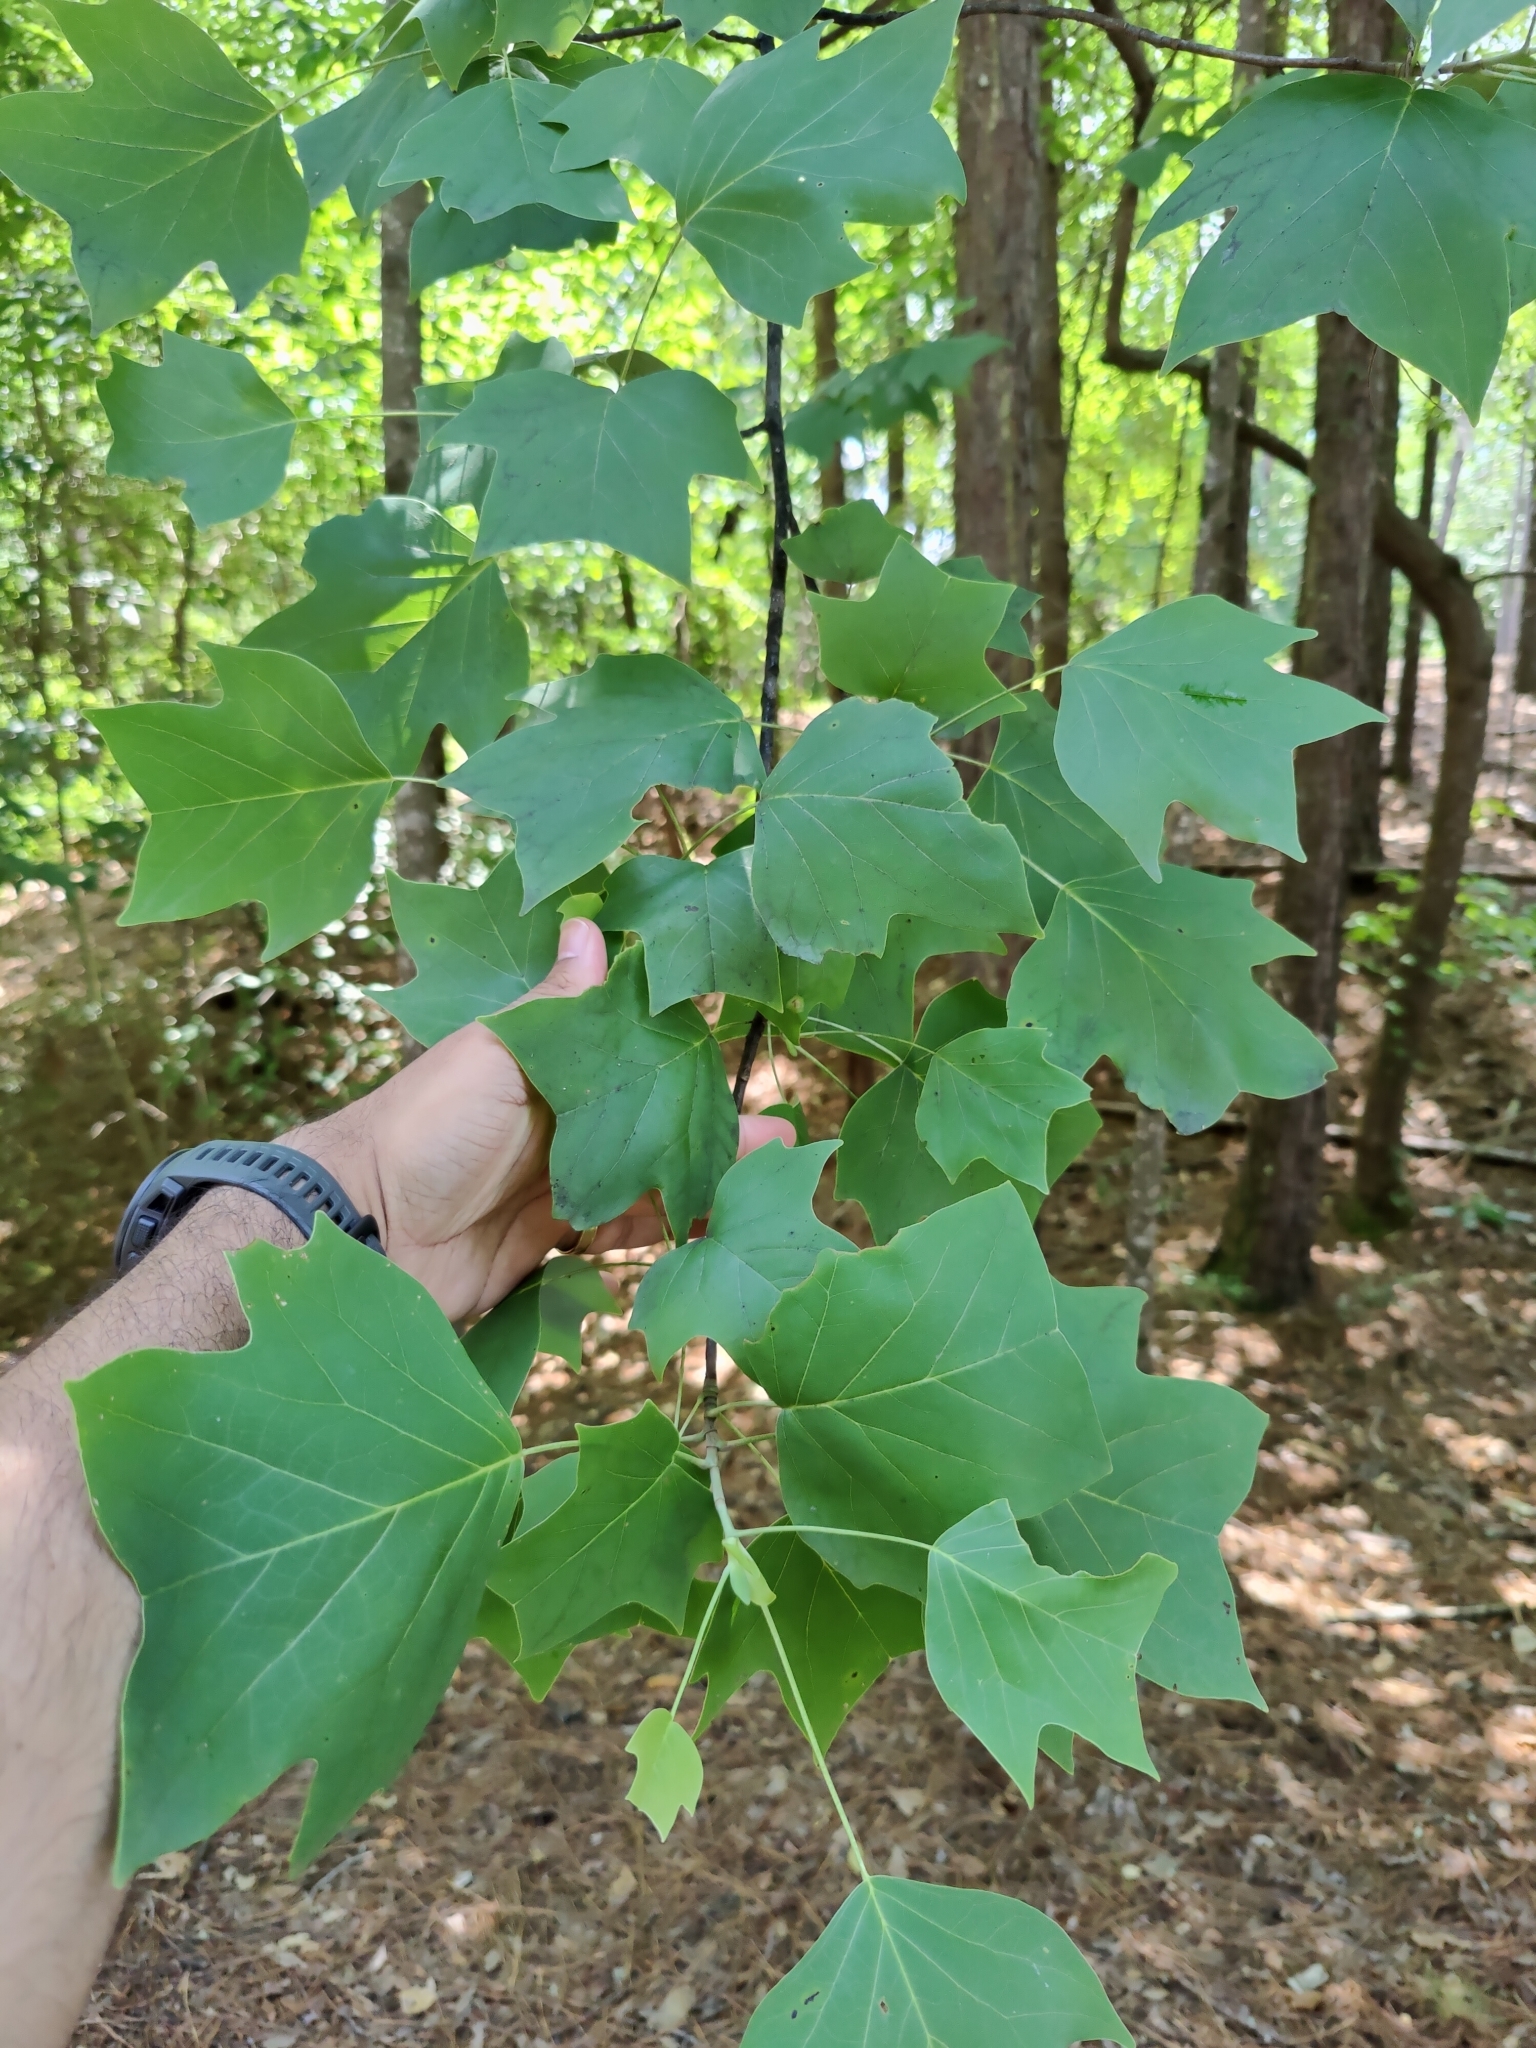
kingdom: Plantae
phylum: Tracheophyta
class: Magnoliopsida
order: Magnoliales
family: Magnoliaceae
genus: Liriodendron
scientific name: Liriodendron tulipifera
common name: Tulip tree
